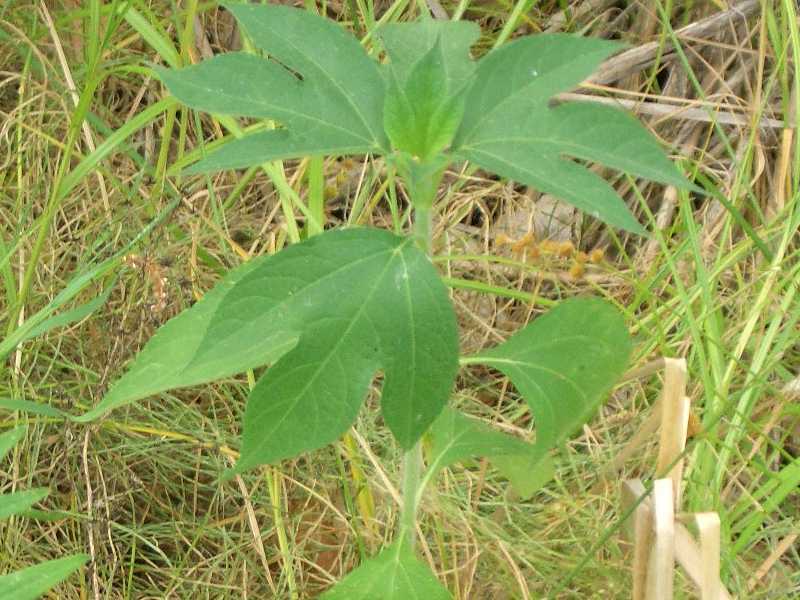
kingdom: Plantae
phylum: Tracheophyta
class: Magnoliopsida
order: Asterales
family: Asteraceae
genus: Ambrosia
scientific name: Ambrosia trifida
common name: Giant ragweed
